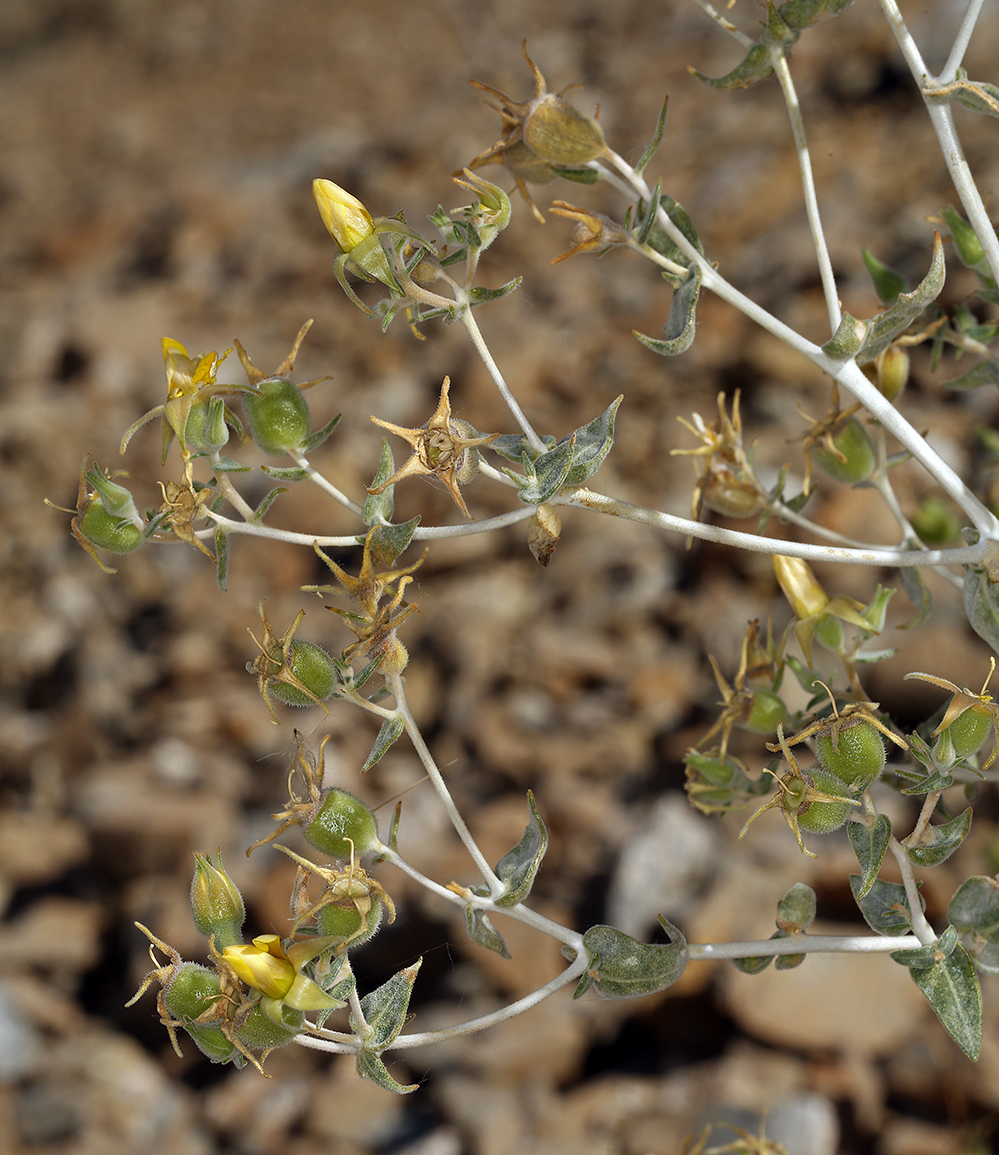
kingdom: Plantae
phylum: Tracheophyta
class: Magnoliopsida
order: Cornales
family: Loasaceae
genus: Mentzelia
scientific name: Mentzelia oreophila
